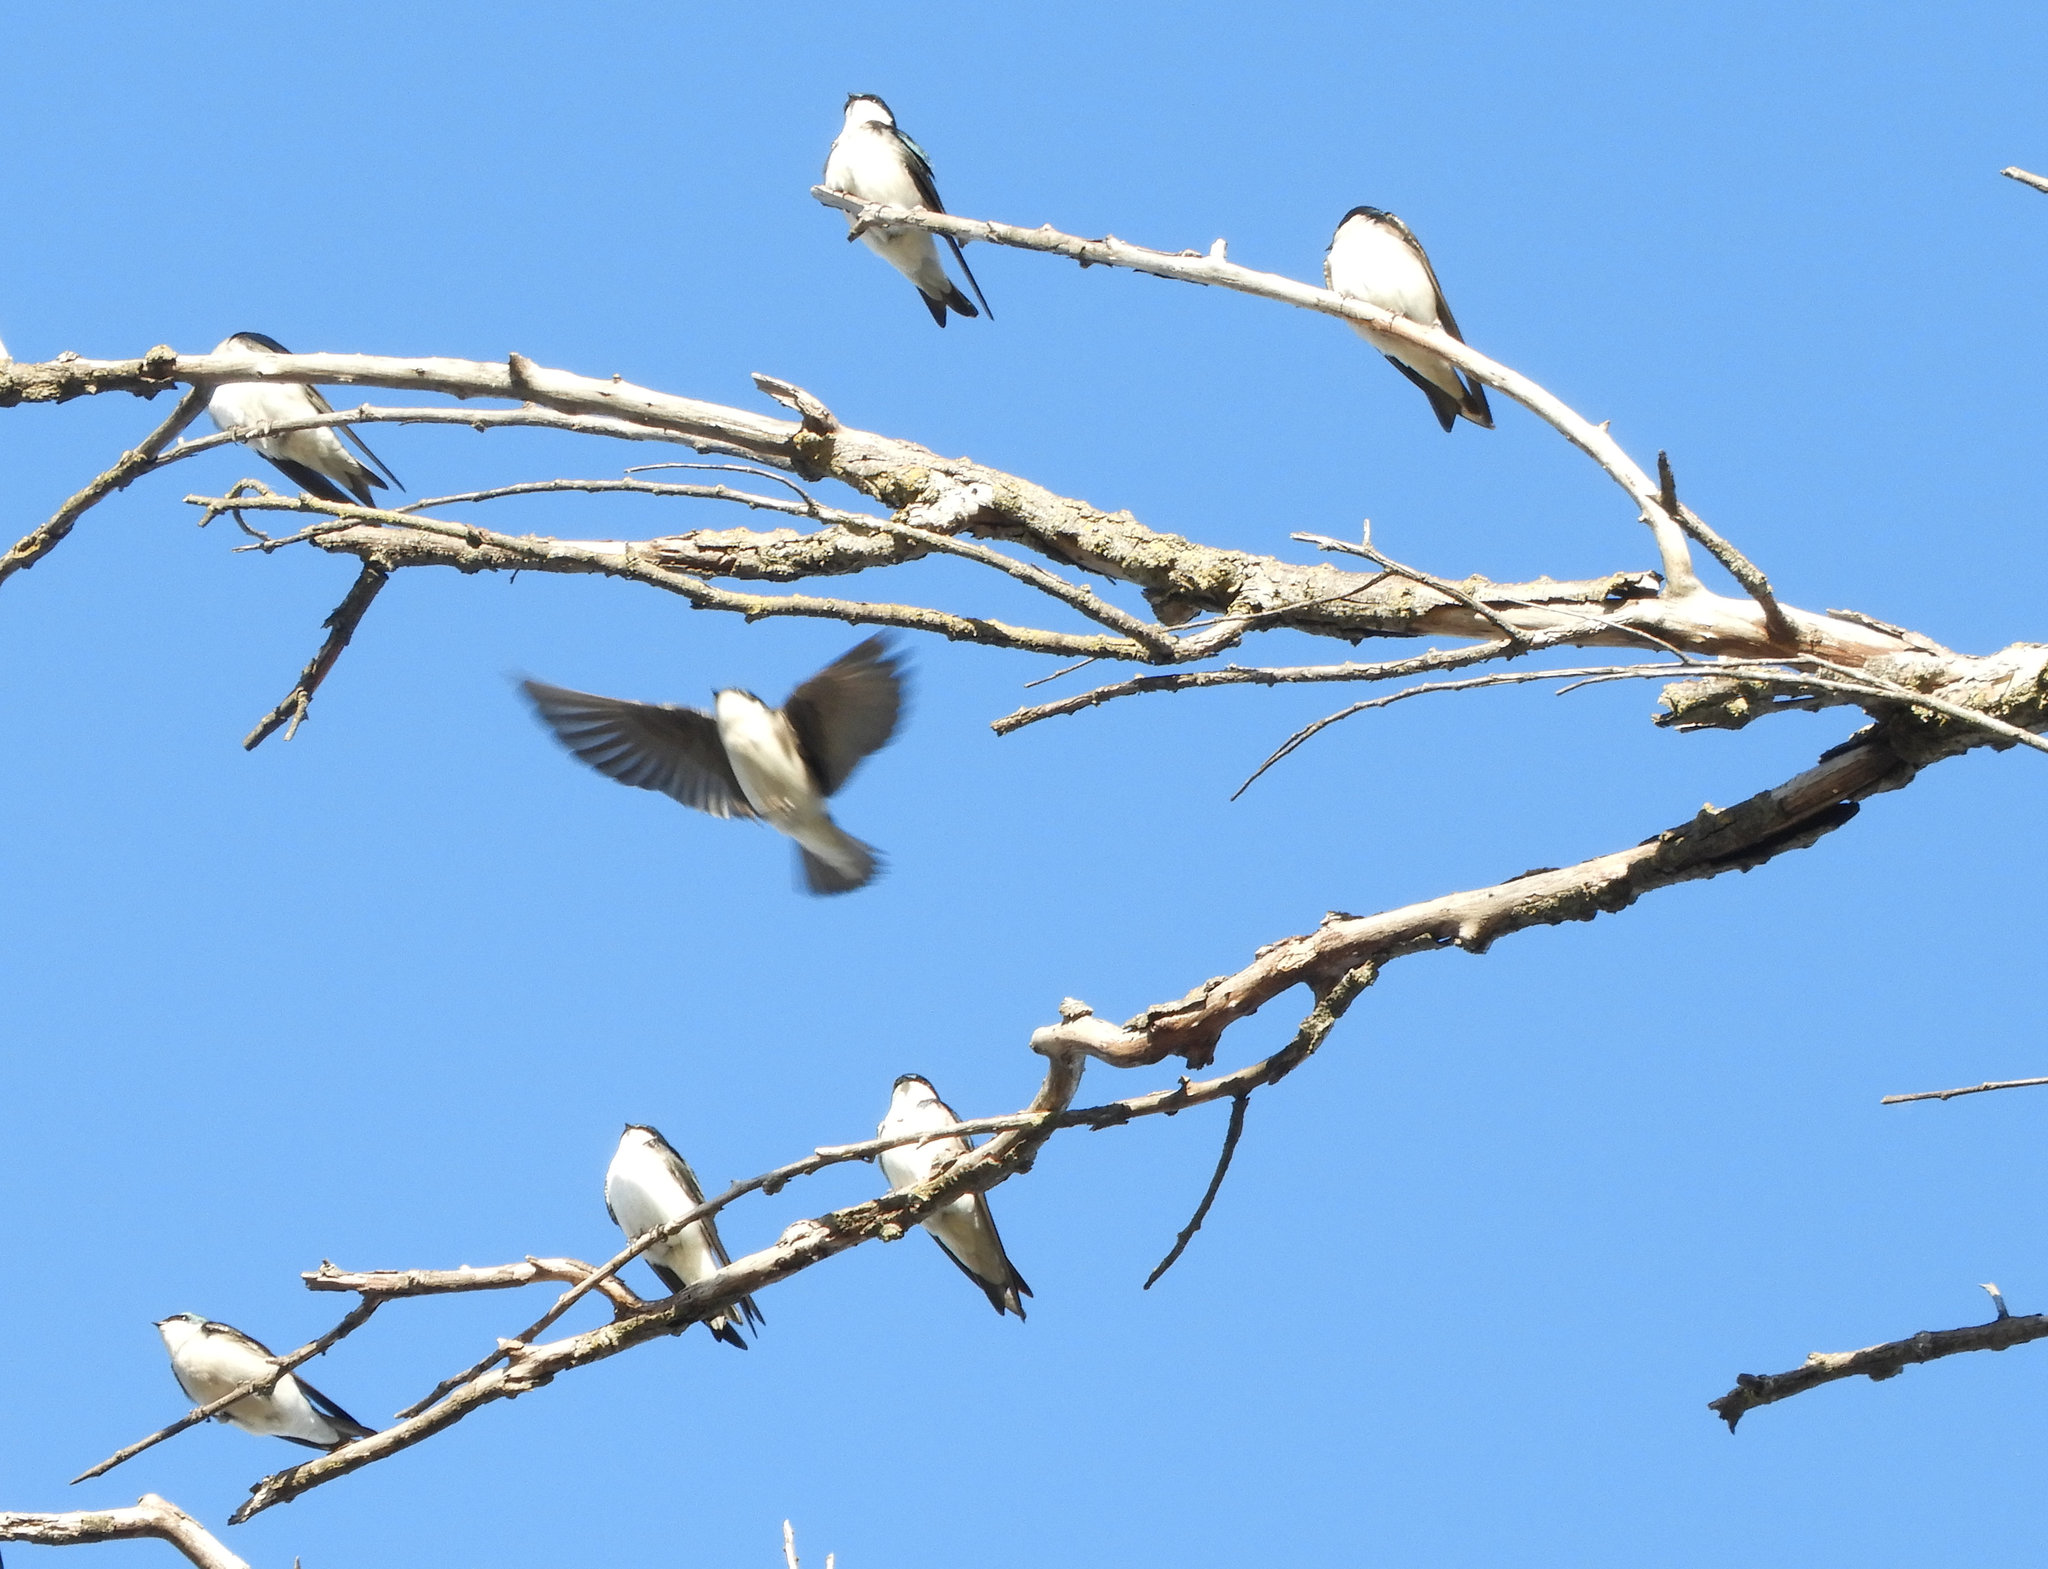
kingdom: Animalia
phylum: Chordata
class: Aves
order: Passeriformes
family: Hirundinidae
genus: Tachycineta
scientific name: Tachycineta bicolor
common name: Tree swallow
